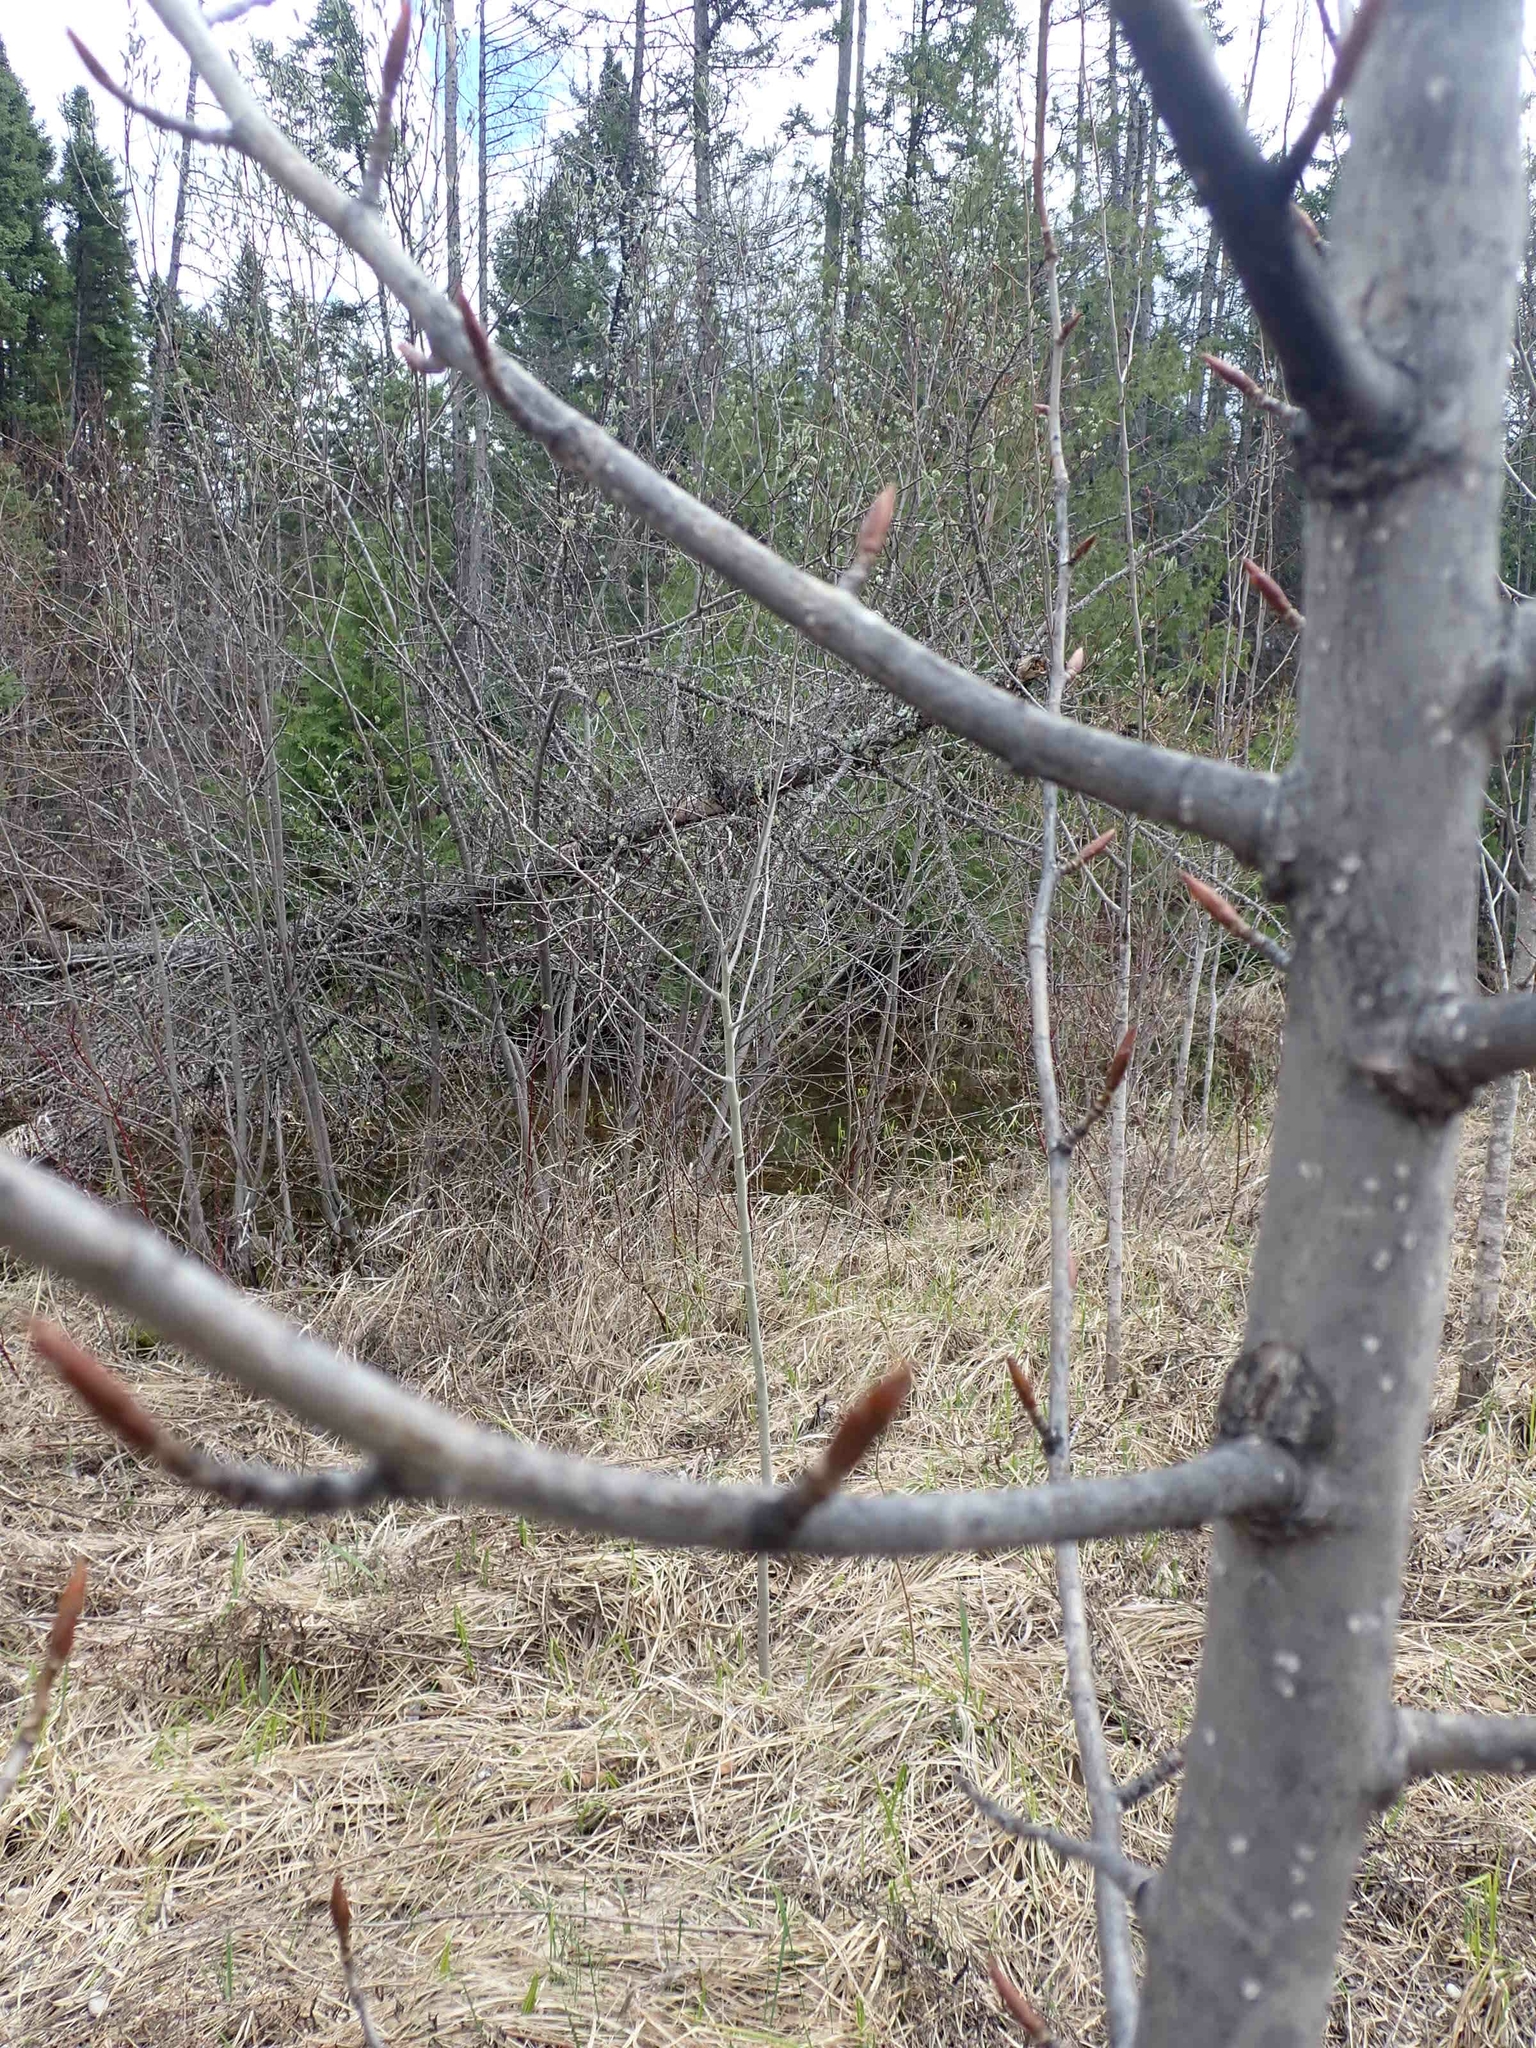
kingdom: Plantae
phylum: Tracheophyta
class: Magnoliopsida
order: Malpighiales
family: Salicaceae
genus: Populus
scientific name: Populus balsamifera
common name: Balsam poplar
